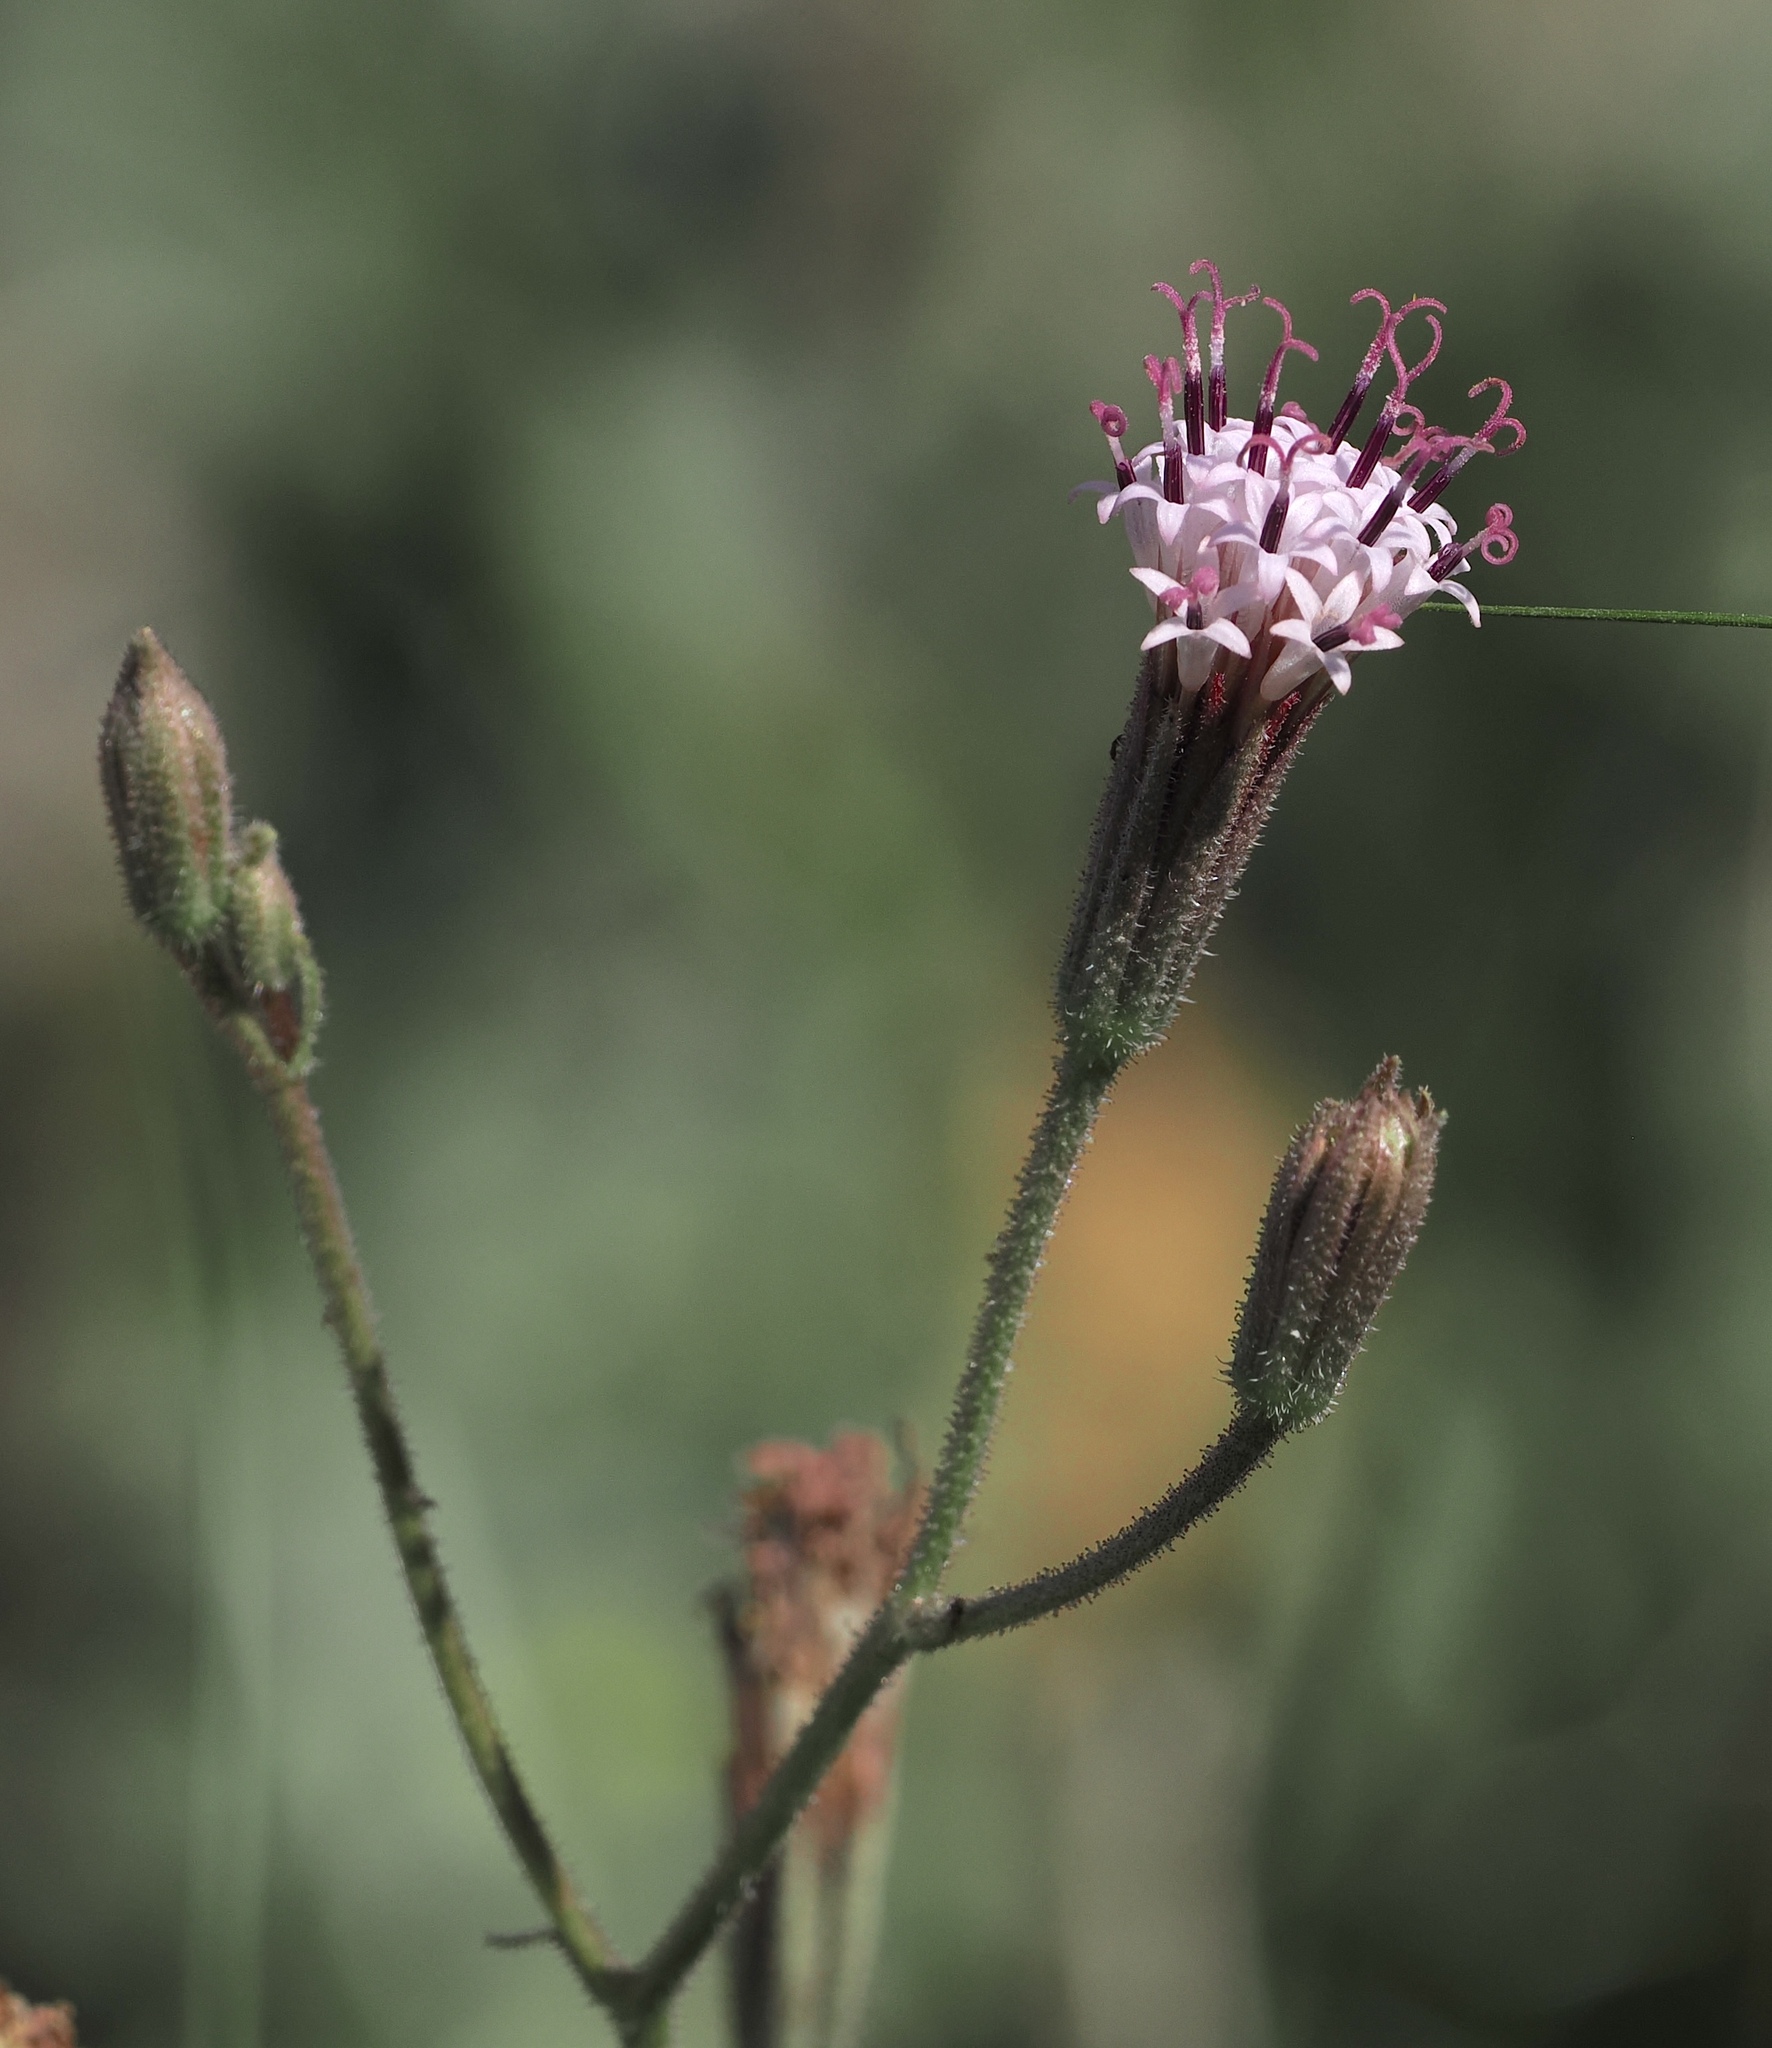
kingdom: Plantae
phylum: Tracheophyta
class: Magnoliopsida
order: Asterales
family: Asteraceae
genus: Palafoxia
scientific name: Palafoxia arida
